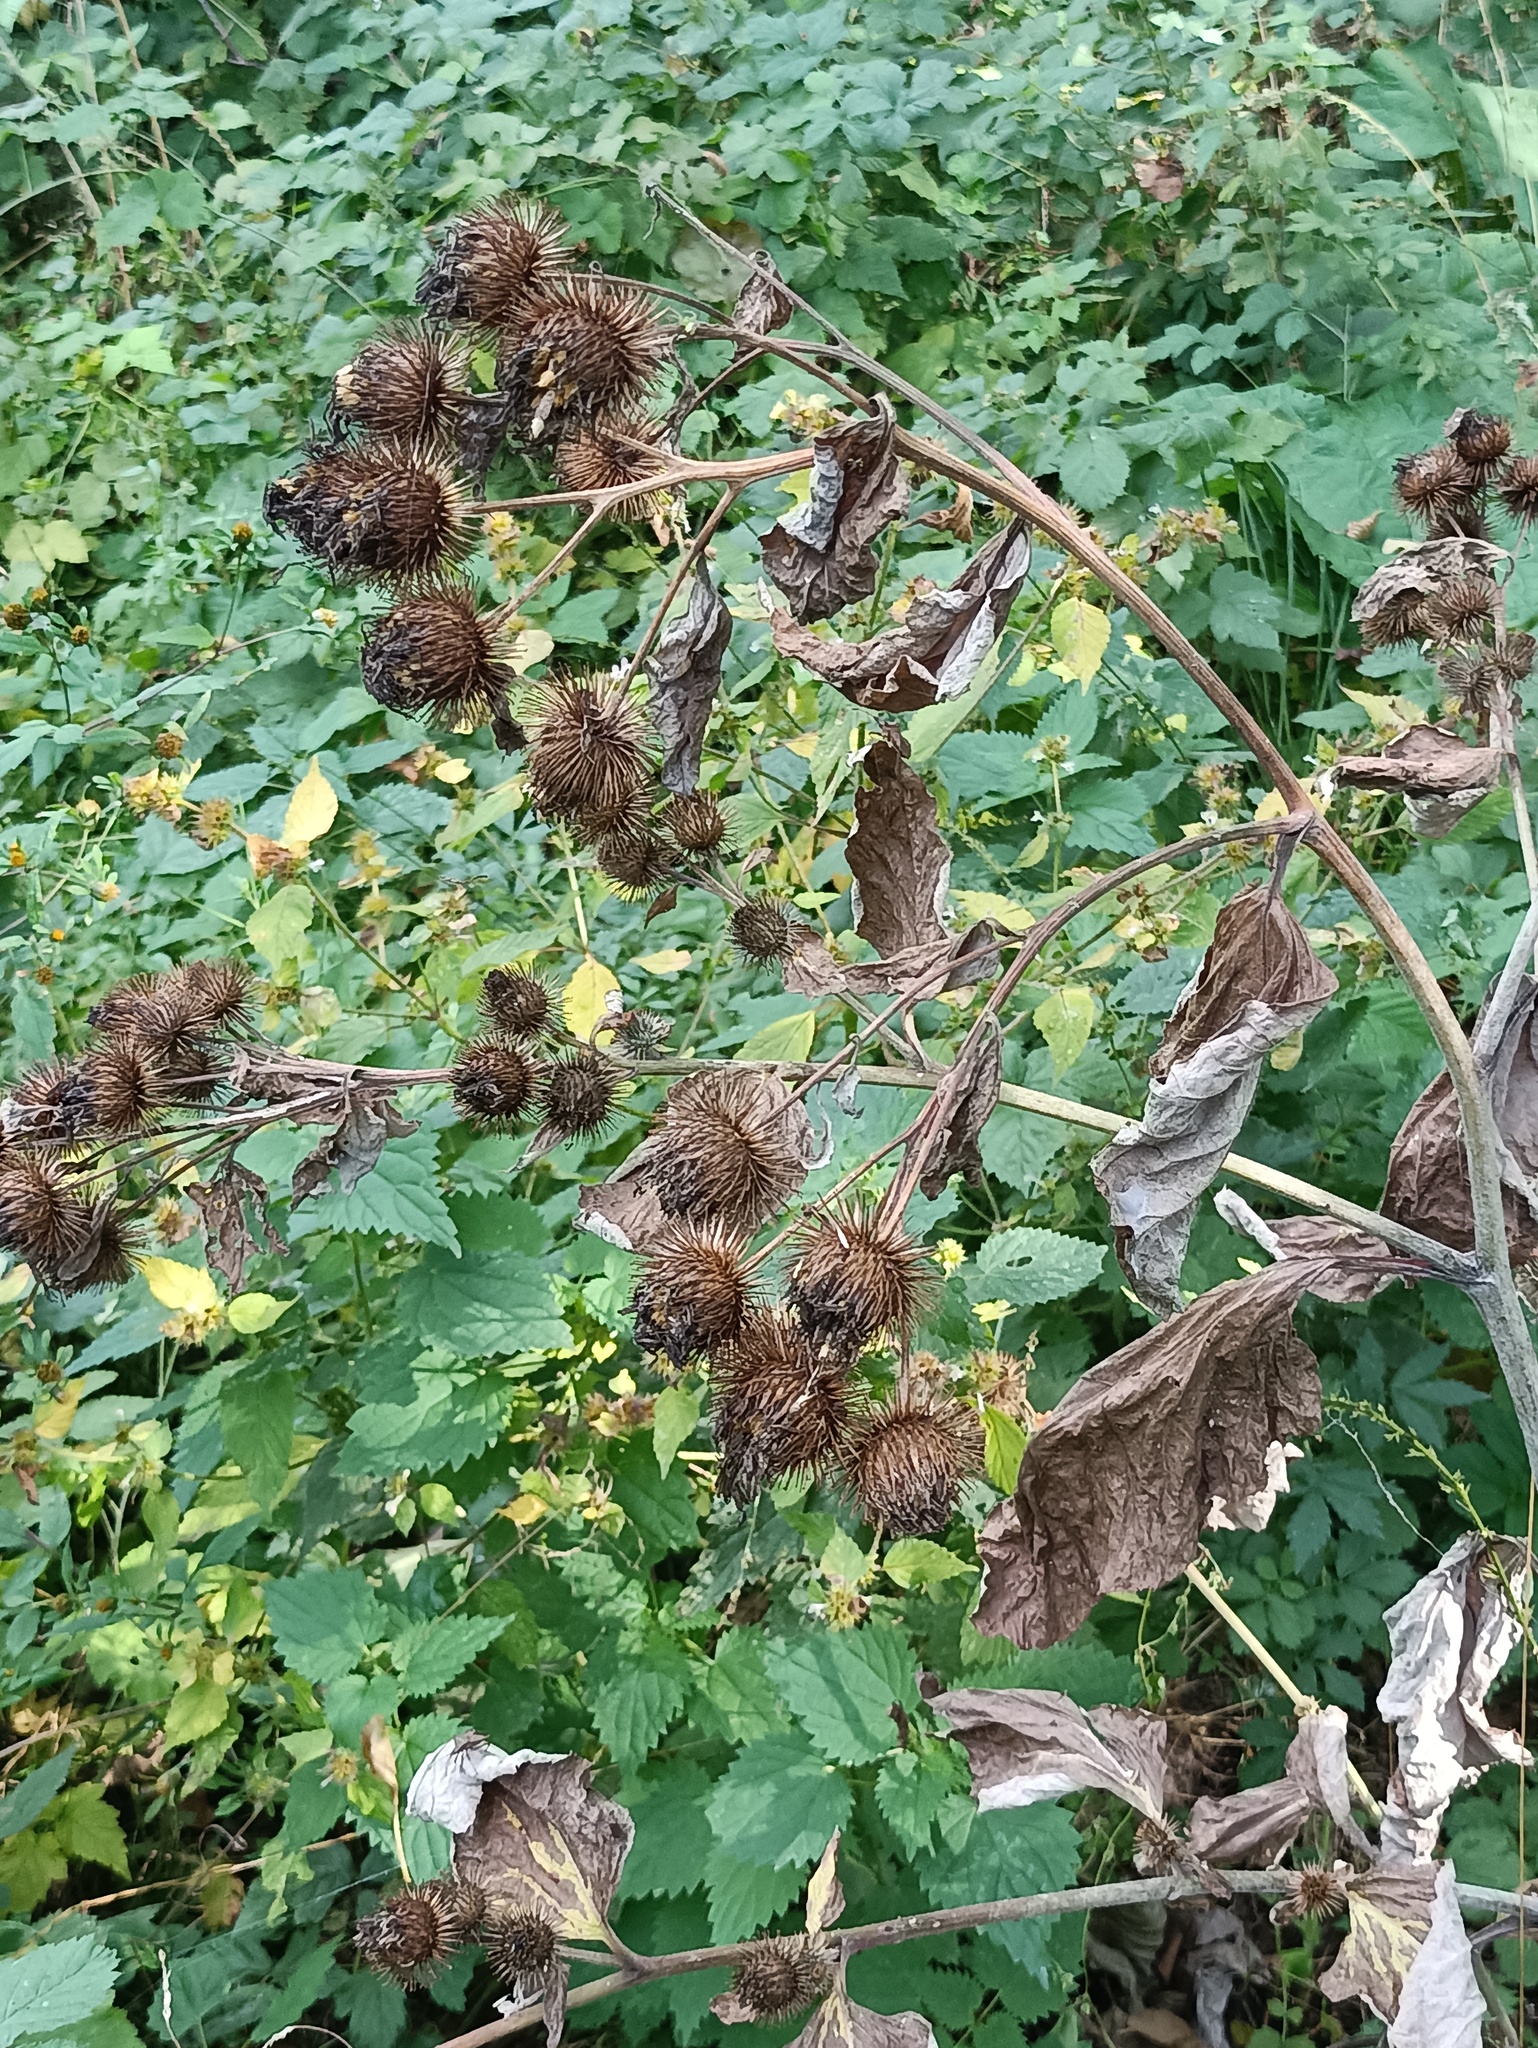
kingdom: Plantae
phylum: Tracheophyta
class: Magnoliopsida
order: Asterales
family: Asteraceae
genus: Arctium
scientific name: Arctium lappa
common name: Greater burdock
